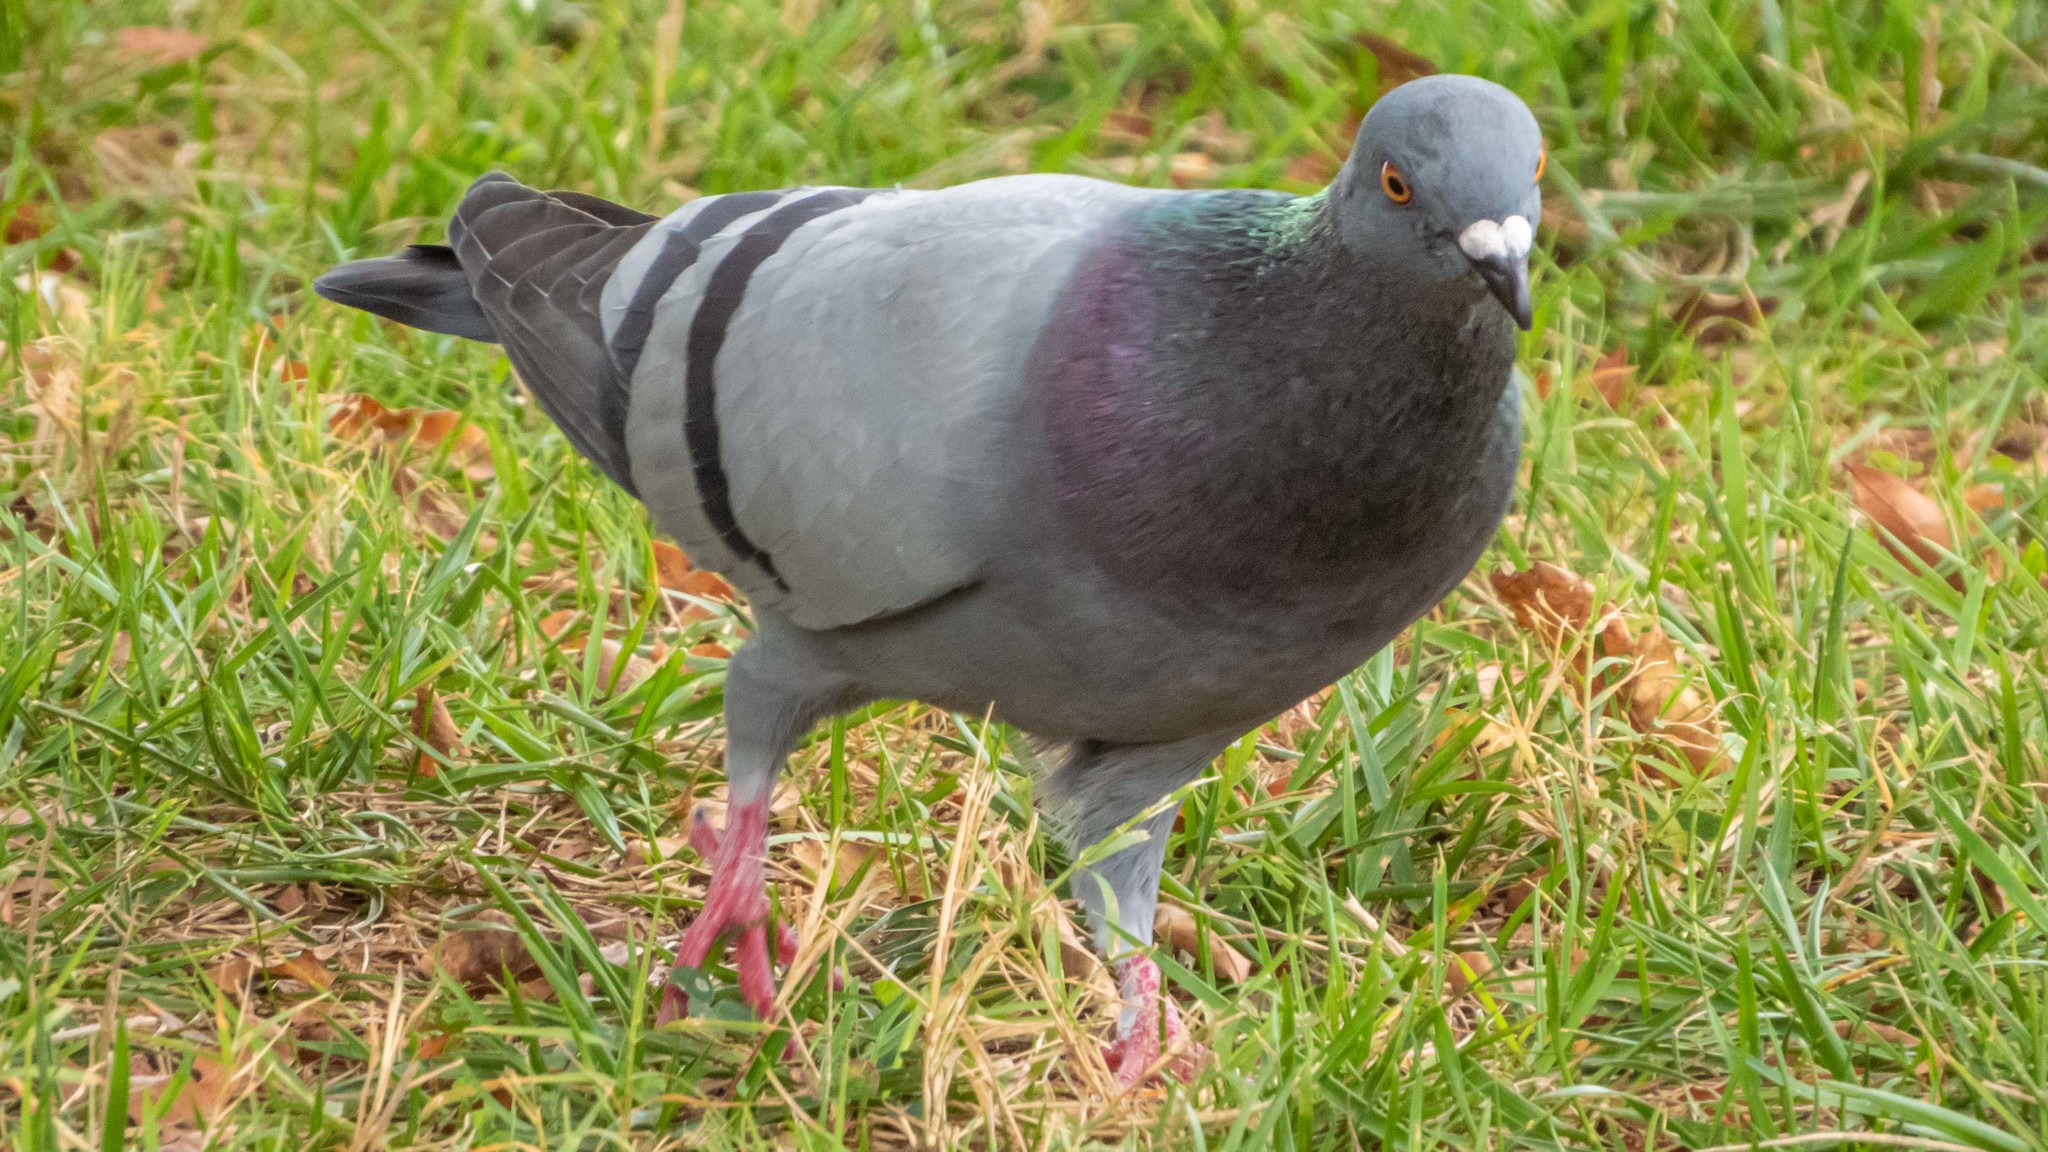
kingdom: Animalia
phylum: Chordata
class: Aves
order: Columbiformes
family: Columbidae
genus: Columba
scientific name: Columba livia
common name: Rock pigeon
